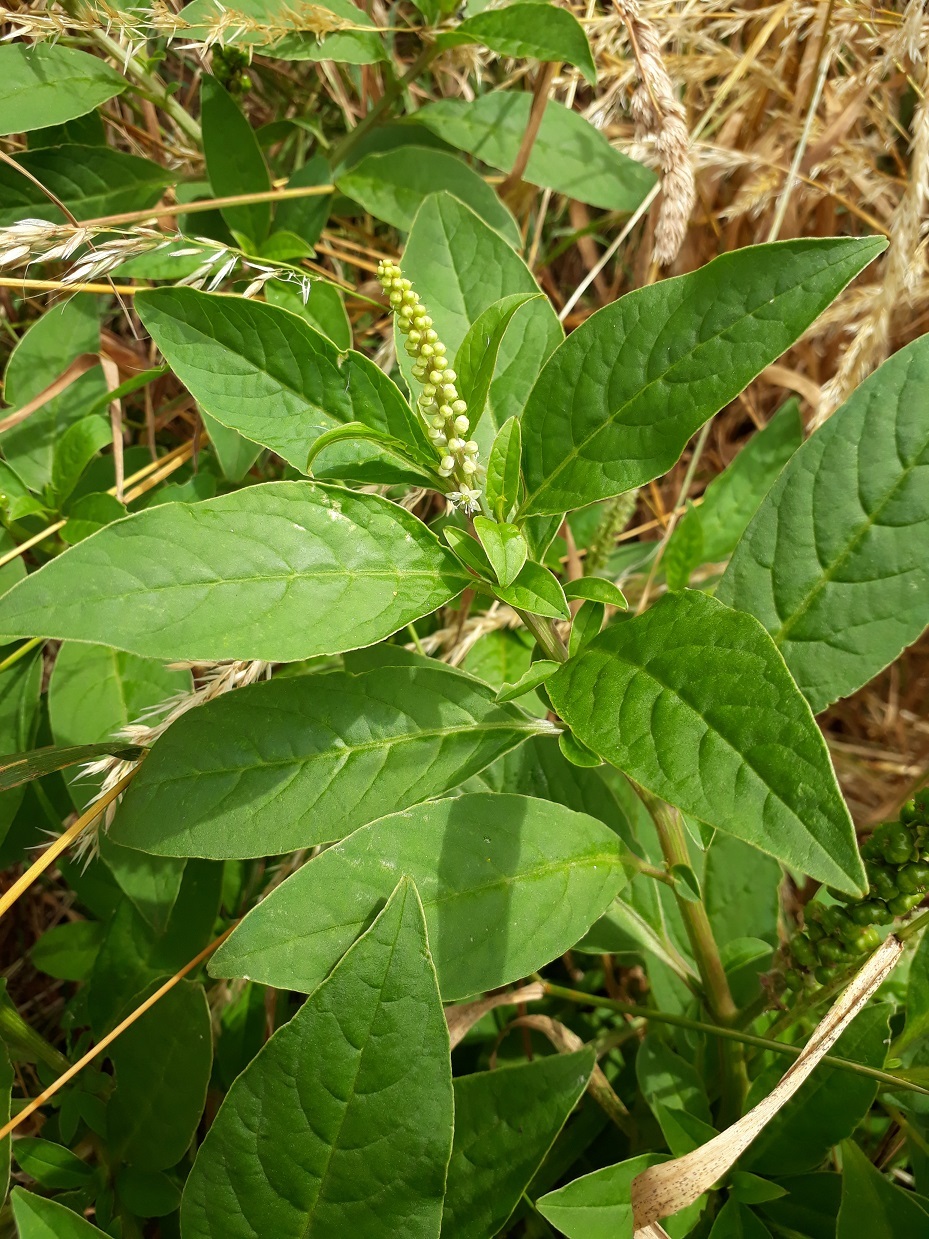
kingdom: Plantae
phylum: Tracheophyta
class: Magnoliopsida
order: Caryophyllales
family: Phytolaccaceae
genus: Phytolacca
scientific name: Phytolacca icosandra
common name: Button pokeweed
